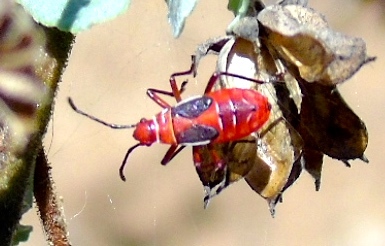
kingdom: Animalia
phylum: Arthropoda
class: Insecta
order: Hemiptera
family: Pyrrhocoridae
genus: Dysdercus
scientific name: Dysdercus
